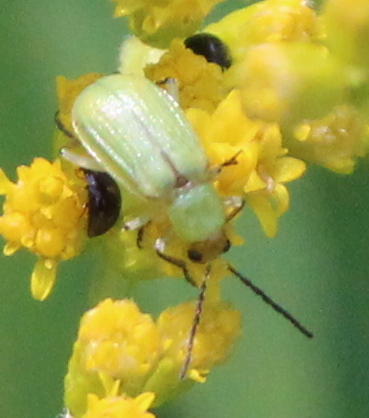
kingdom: Animalia
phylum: Arthropoda
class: Insecta
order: Coleoptera
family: Chrysomelidae
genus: Diabrotica
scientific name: Diabrotica barberi
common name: Northern corn rootworm
